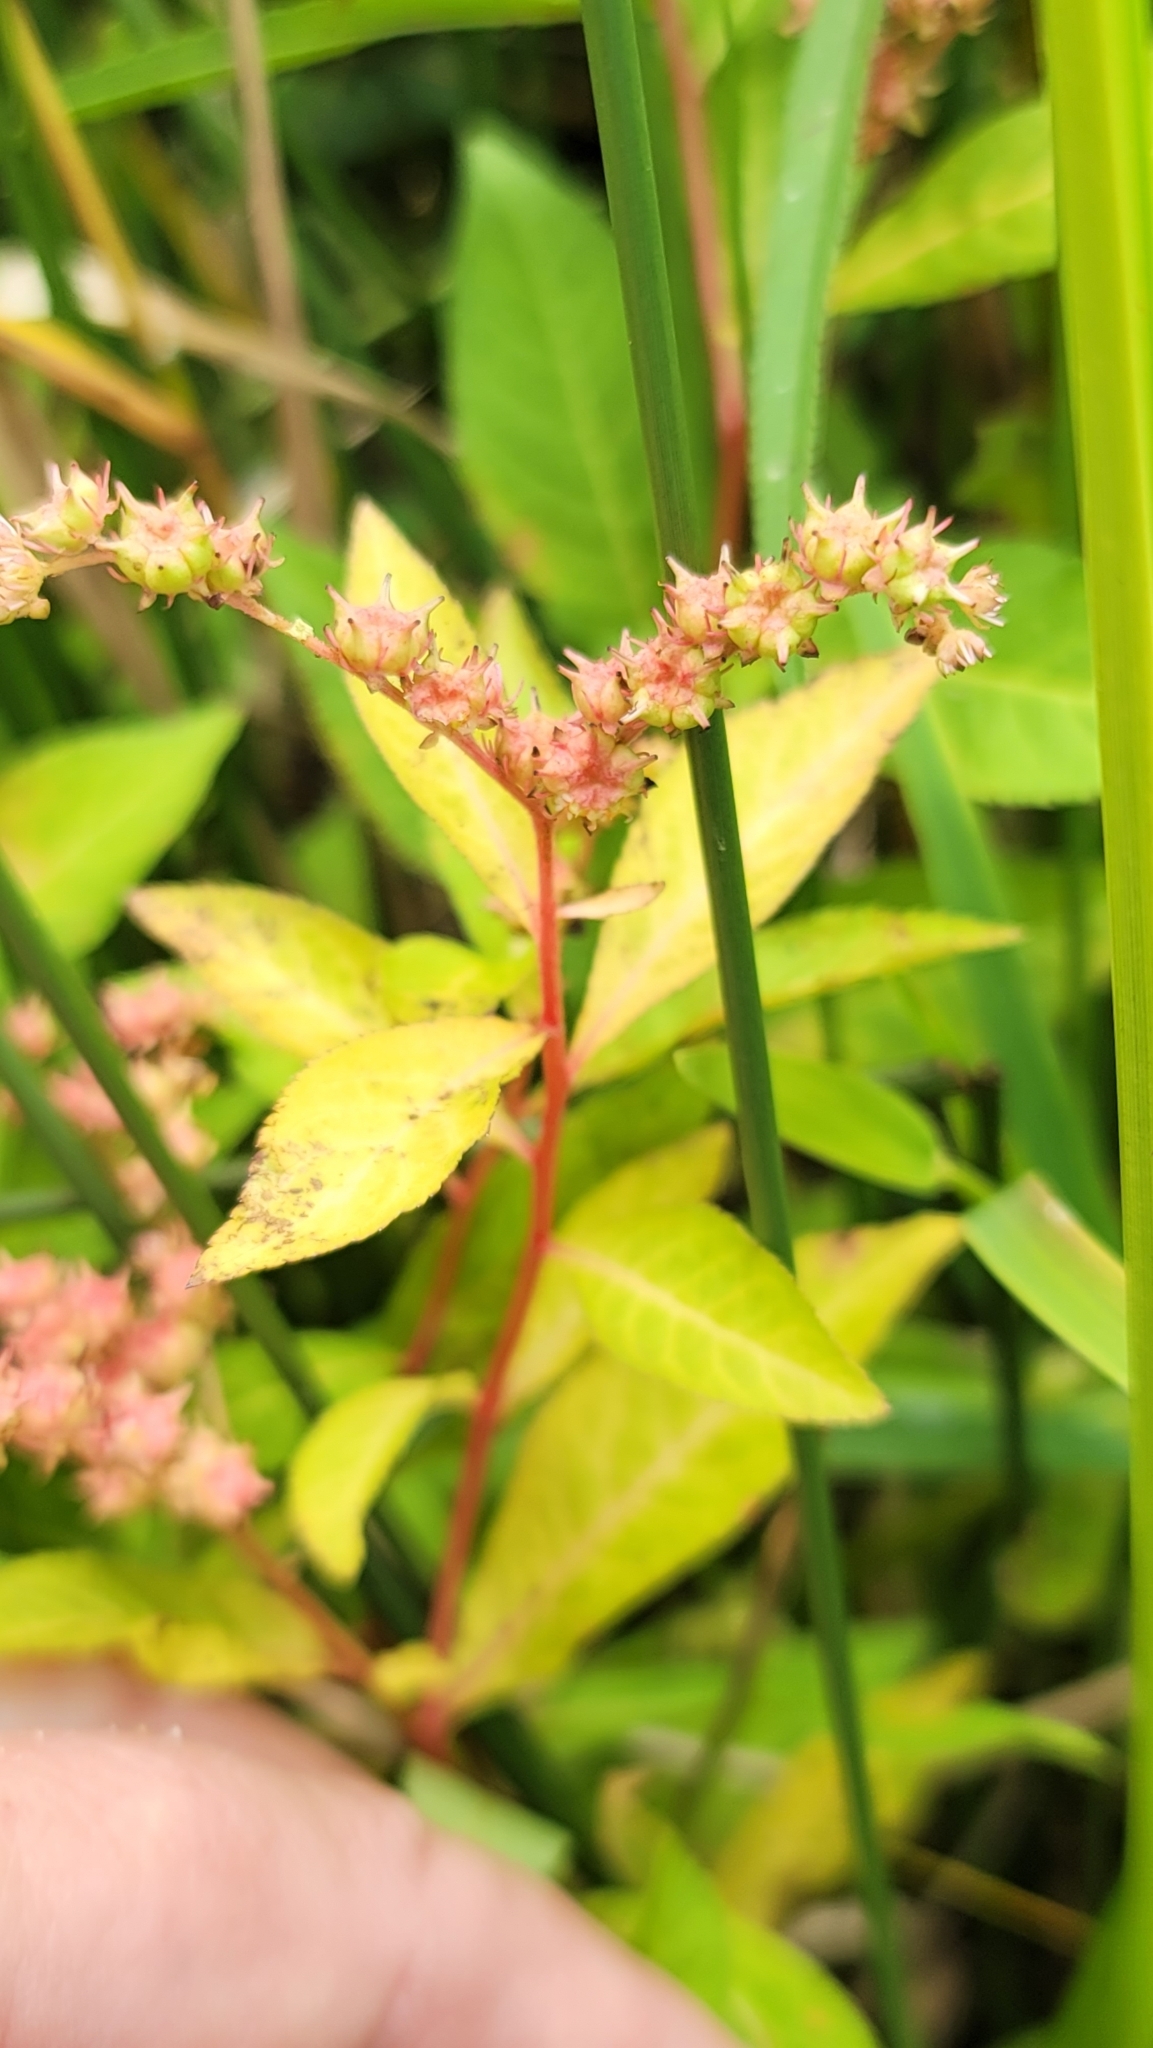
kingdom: Plantae
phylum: Tracheophyta
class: Magnoliopsida
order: Saxifragales
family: Penthoraceae
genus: Penthorum
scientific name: Penthorum sedoides
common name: Ditch stonecrop
